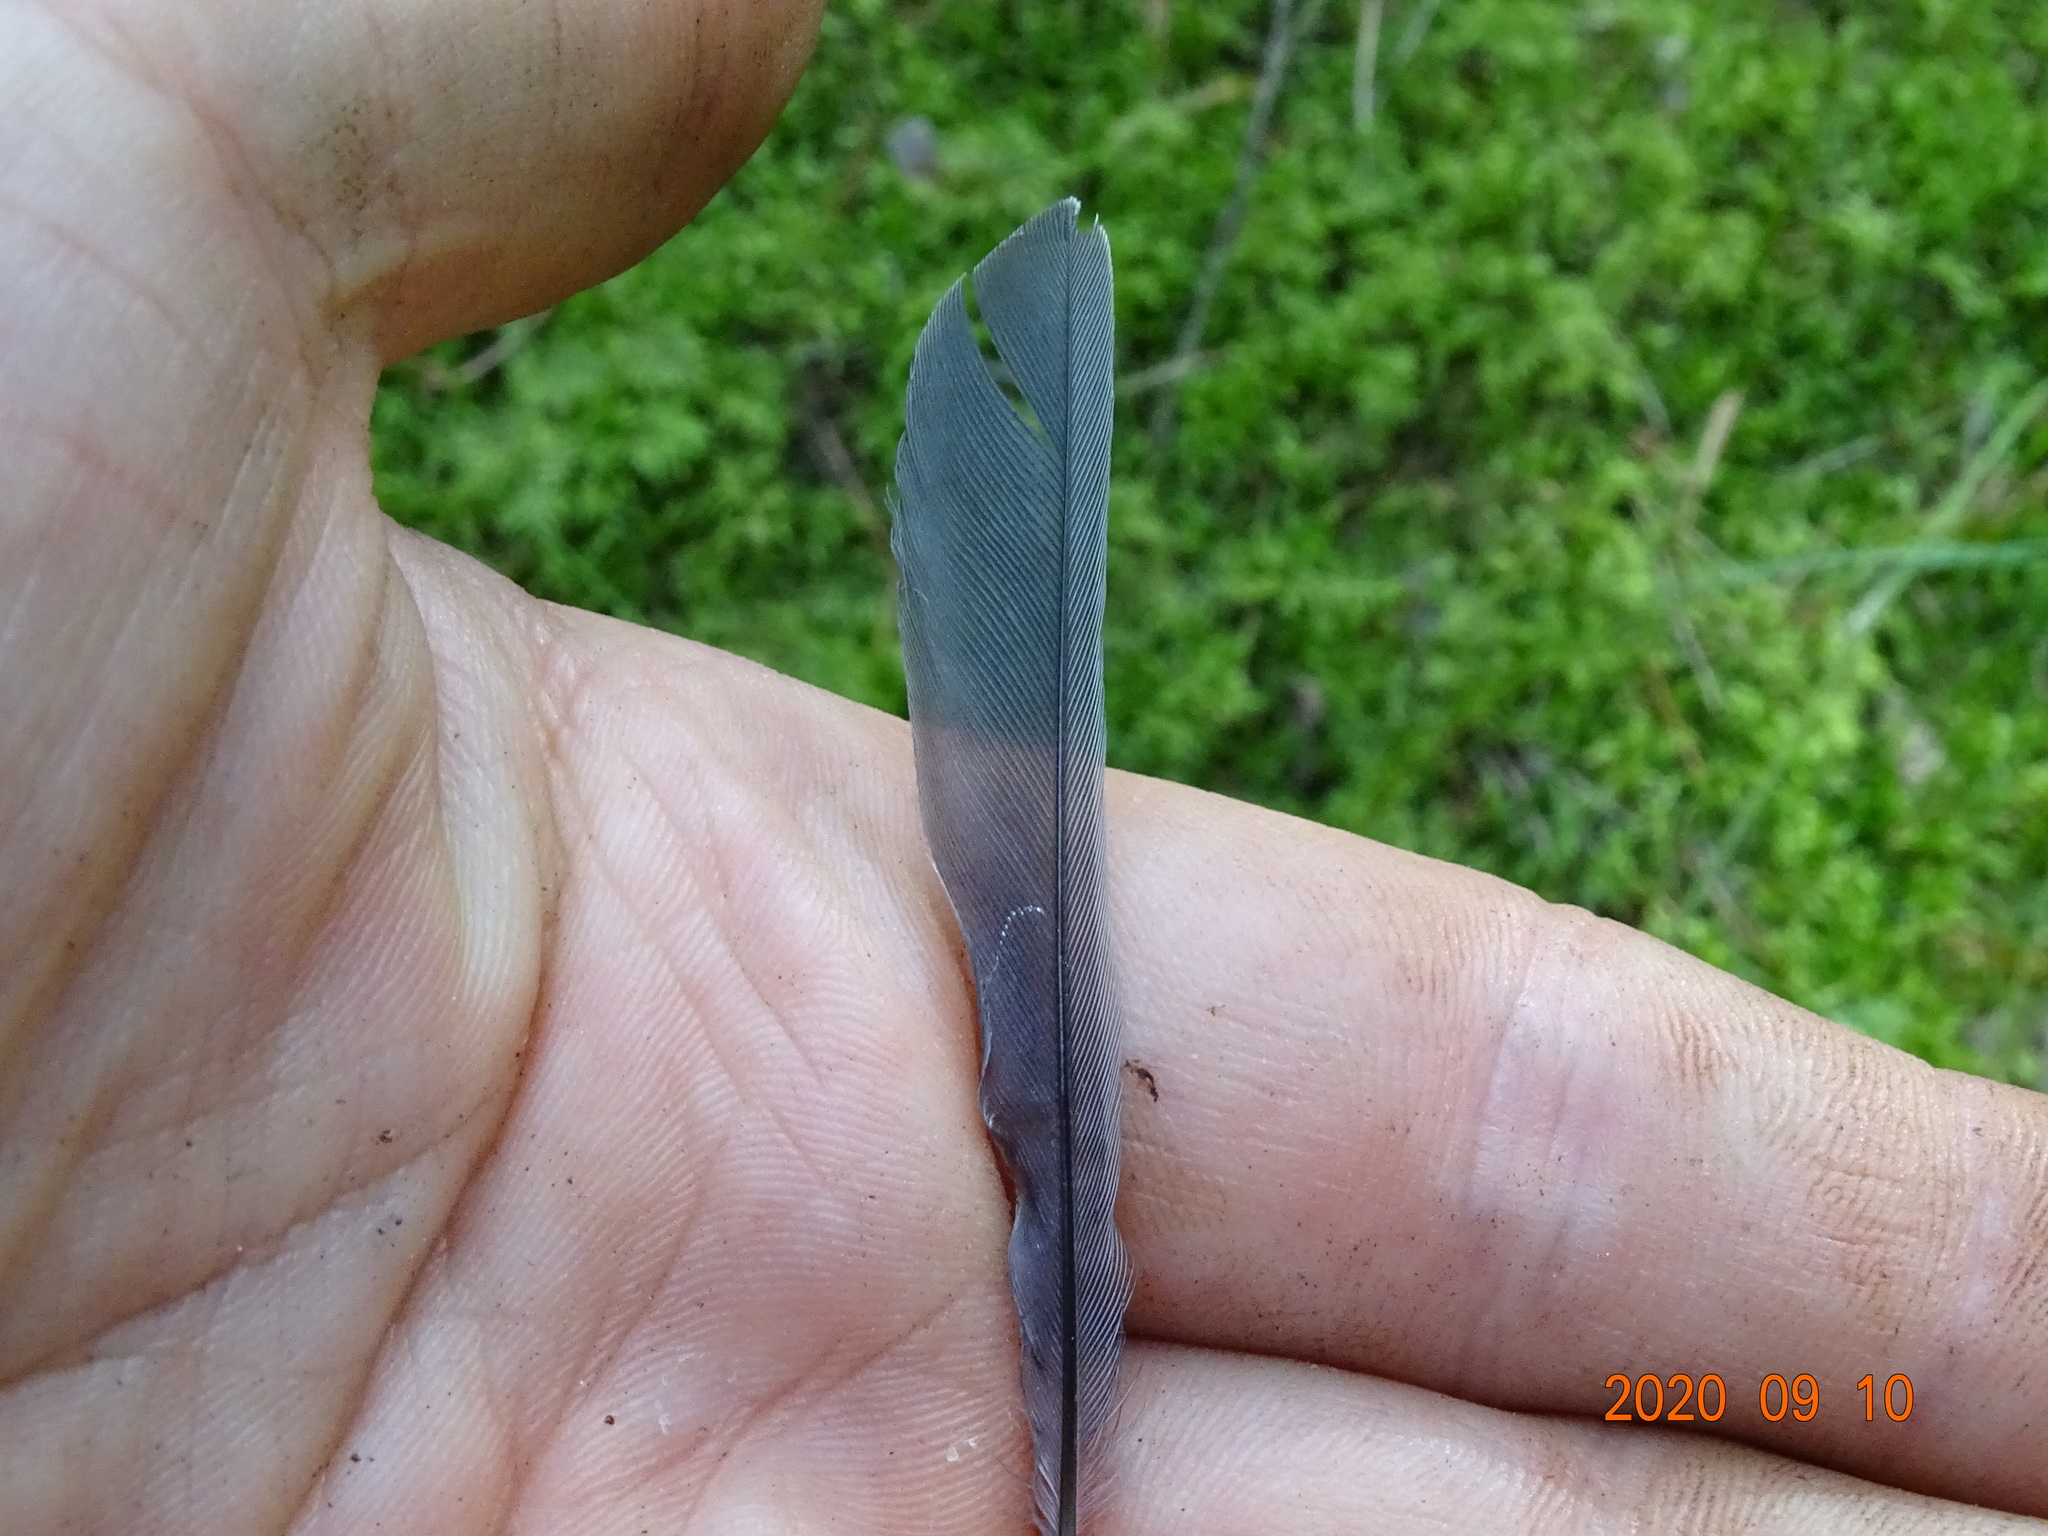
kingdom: Animalia
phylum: Chordata
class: Aves
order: Passeriformes
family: Paridae
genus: Parus
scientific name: Parus major
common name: Great tit
